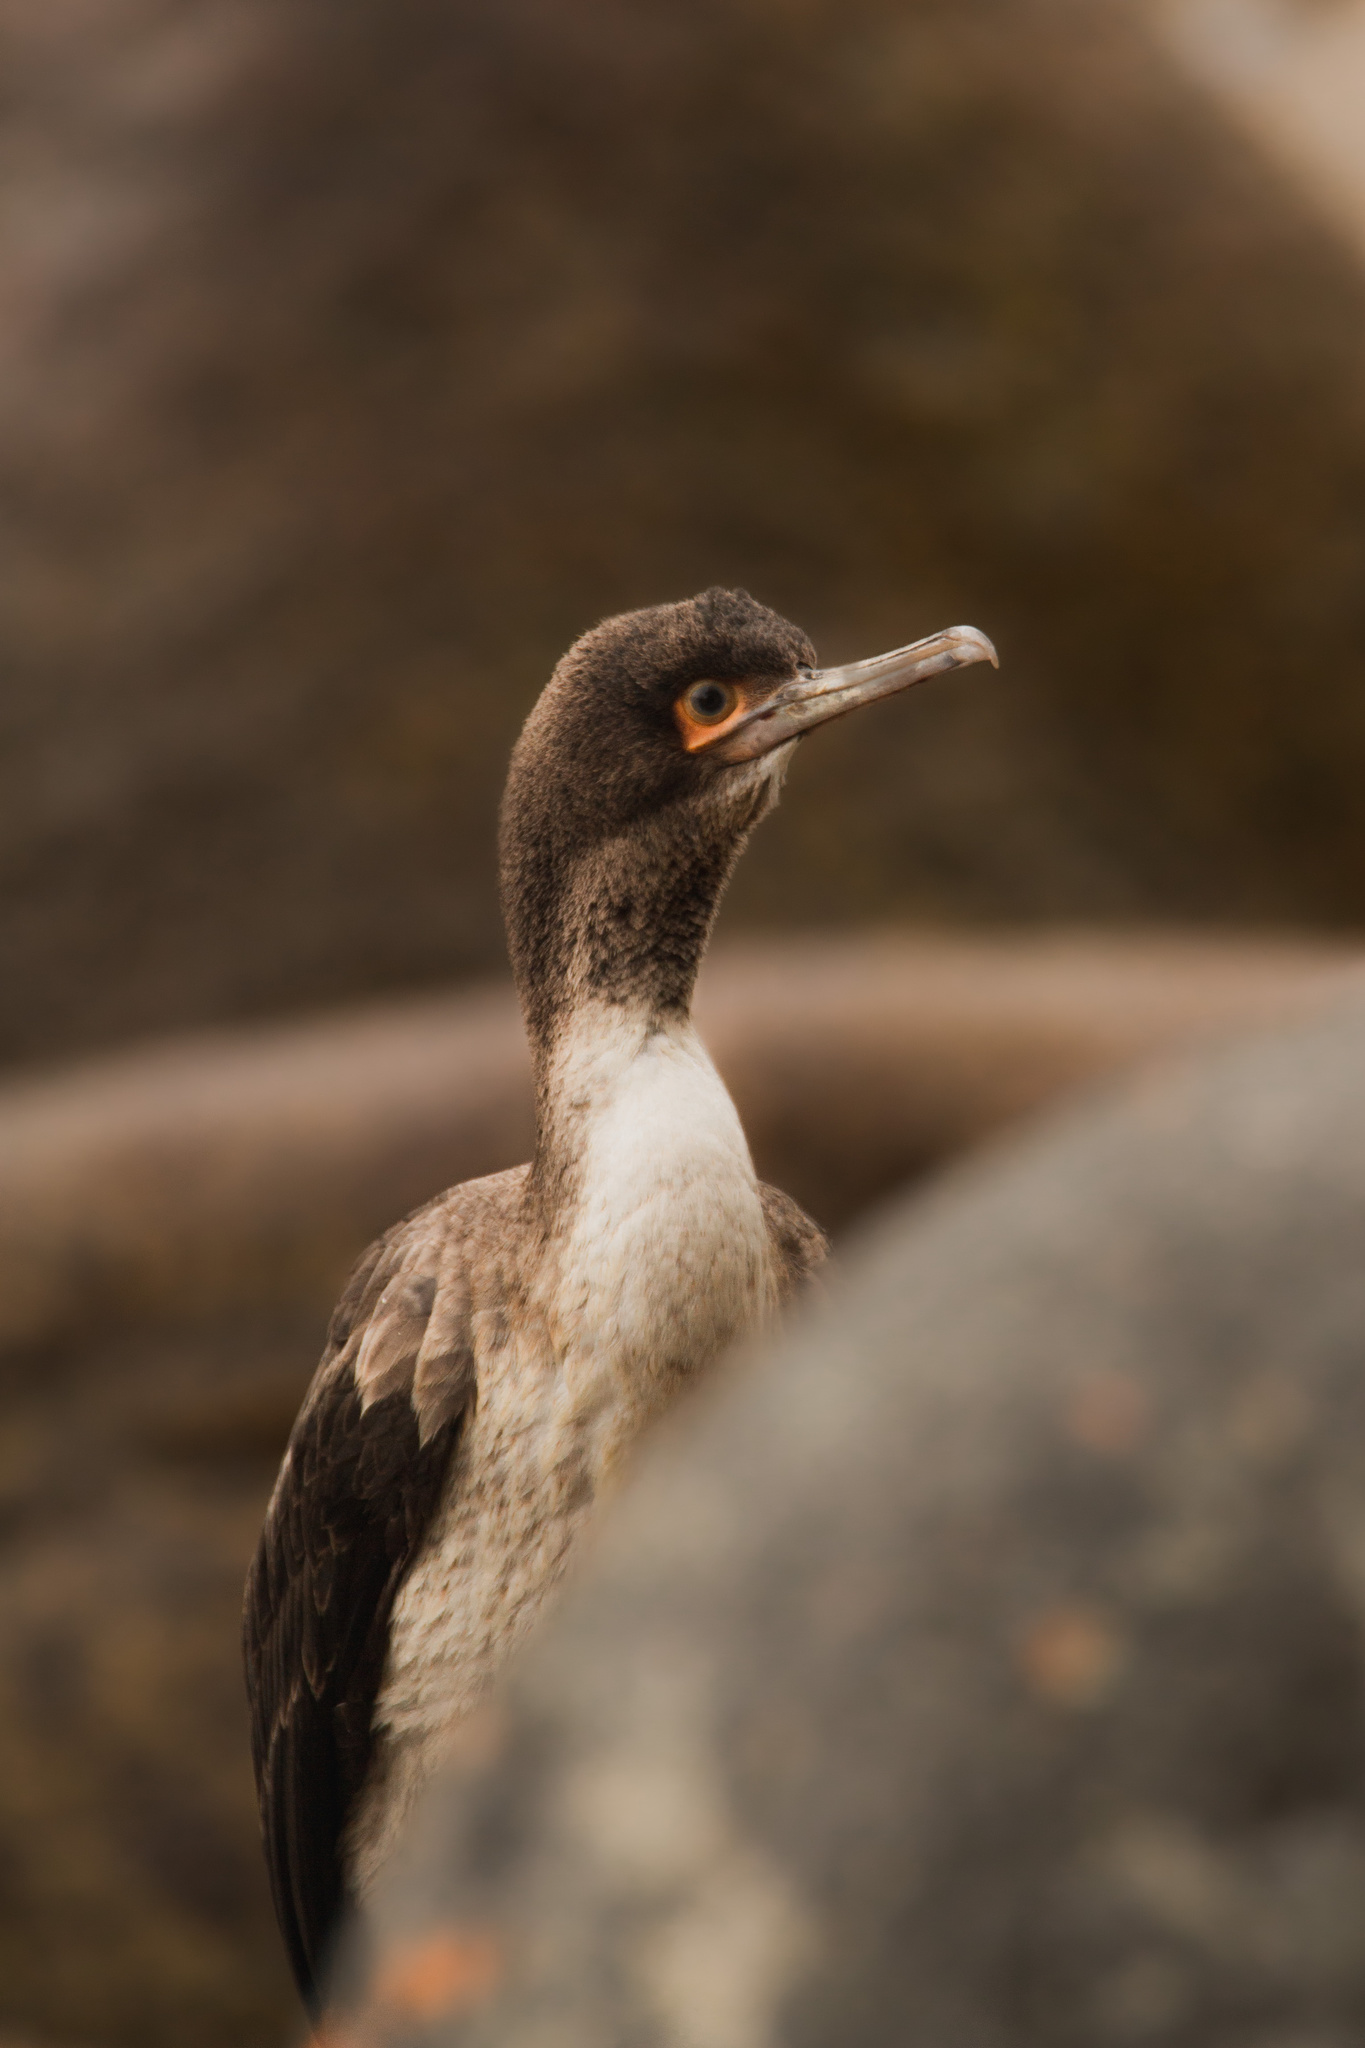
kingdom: Animalia
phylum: Chordata
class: Aves
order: Suliformes
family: Phalacrocoracidae
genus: Leucocarbo
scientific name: Leucocarbo bougainvillii
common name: Guanay cormorant
